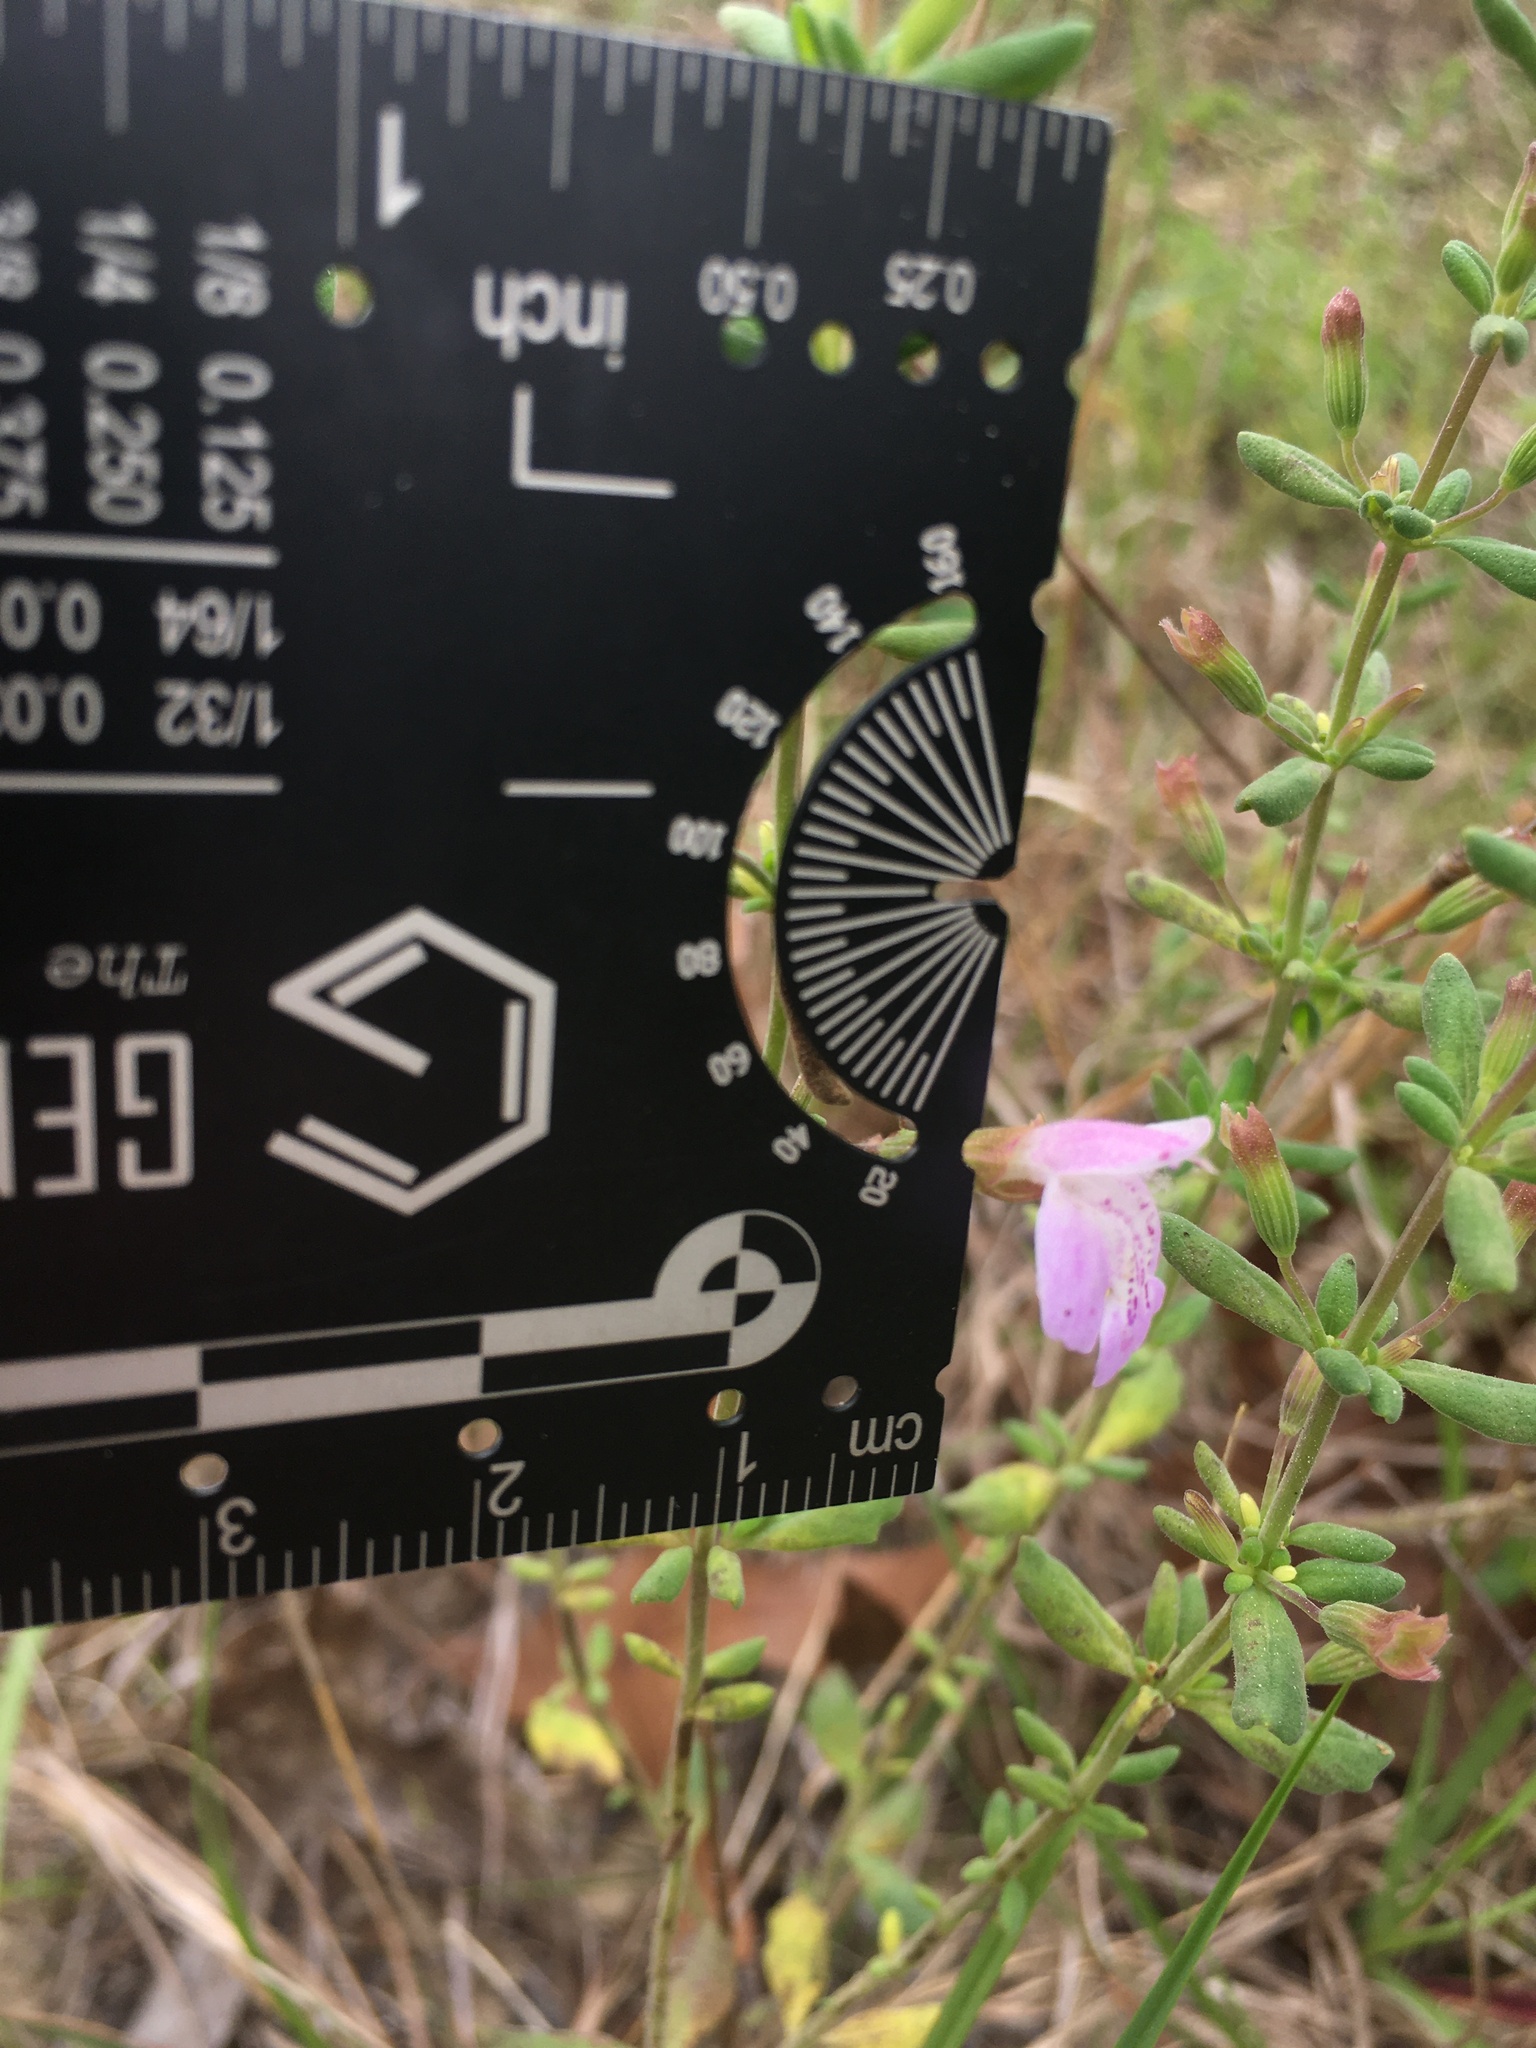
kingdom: Plantae
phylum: Tracheophyta
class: Magnoliopsida
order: Lamiales
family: Lamiaceae
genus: Clinopodium
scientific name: Clinopodium dentatum
